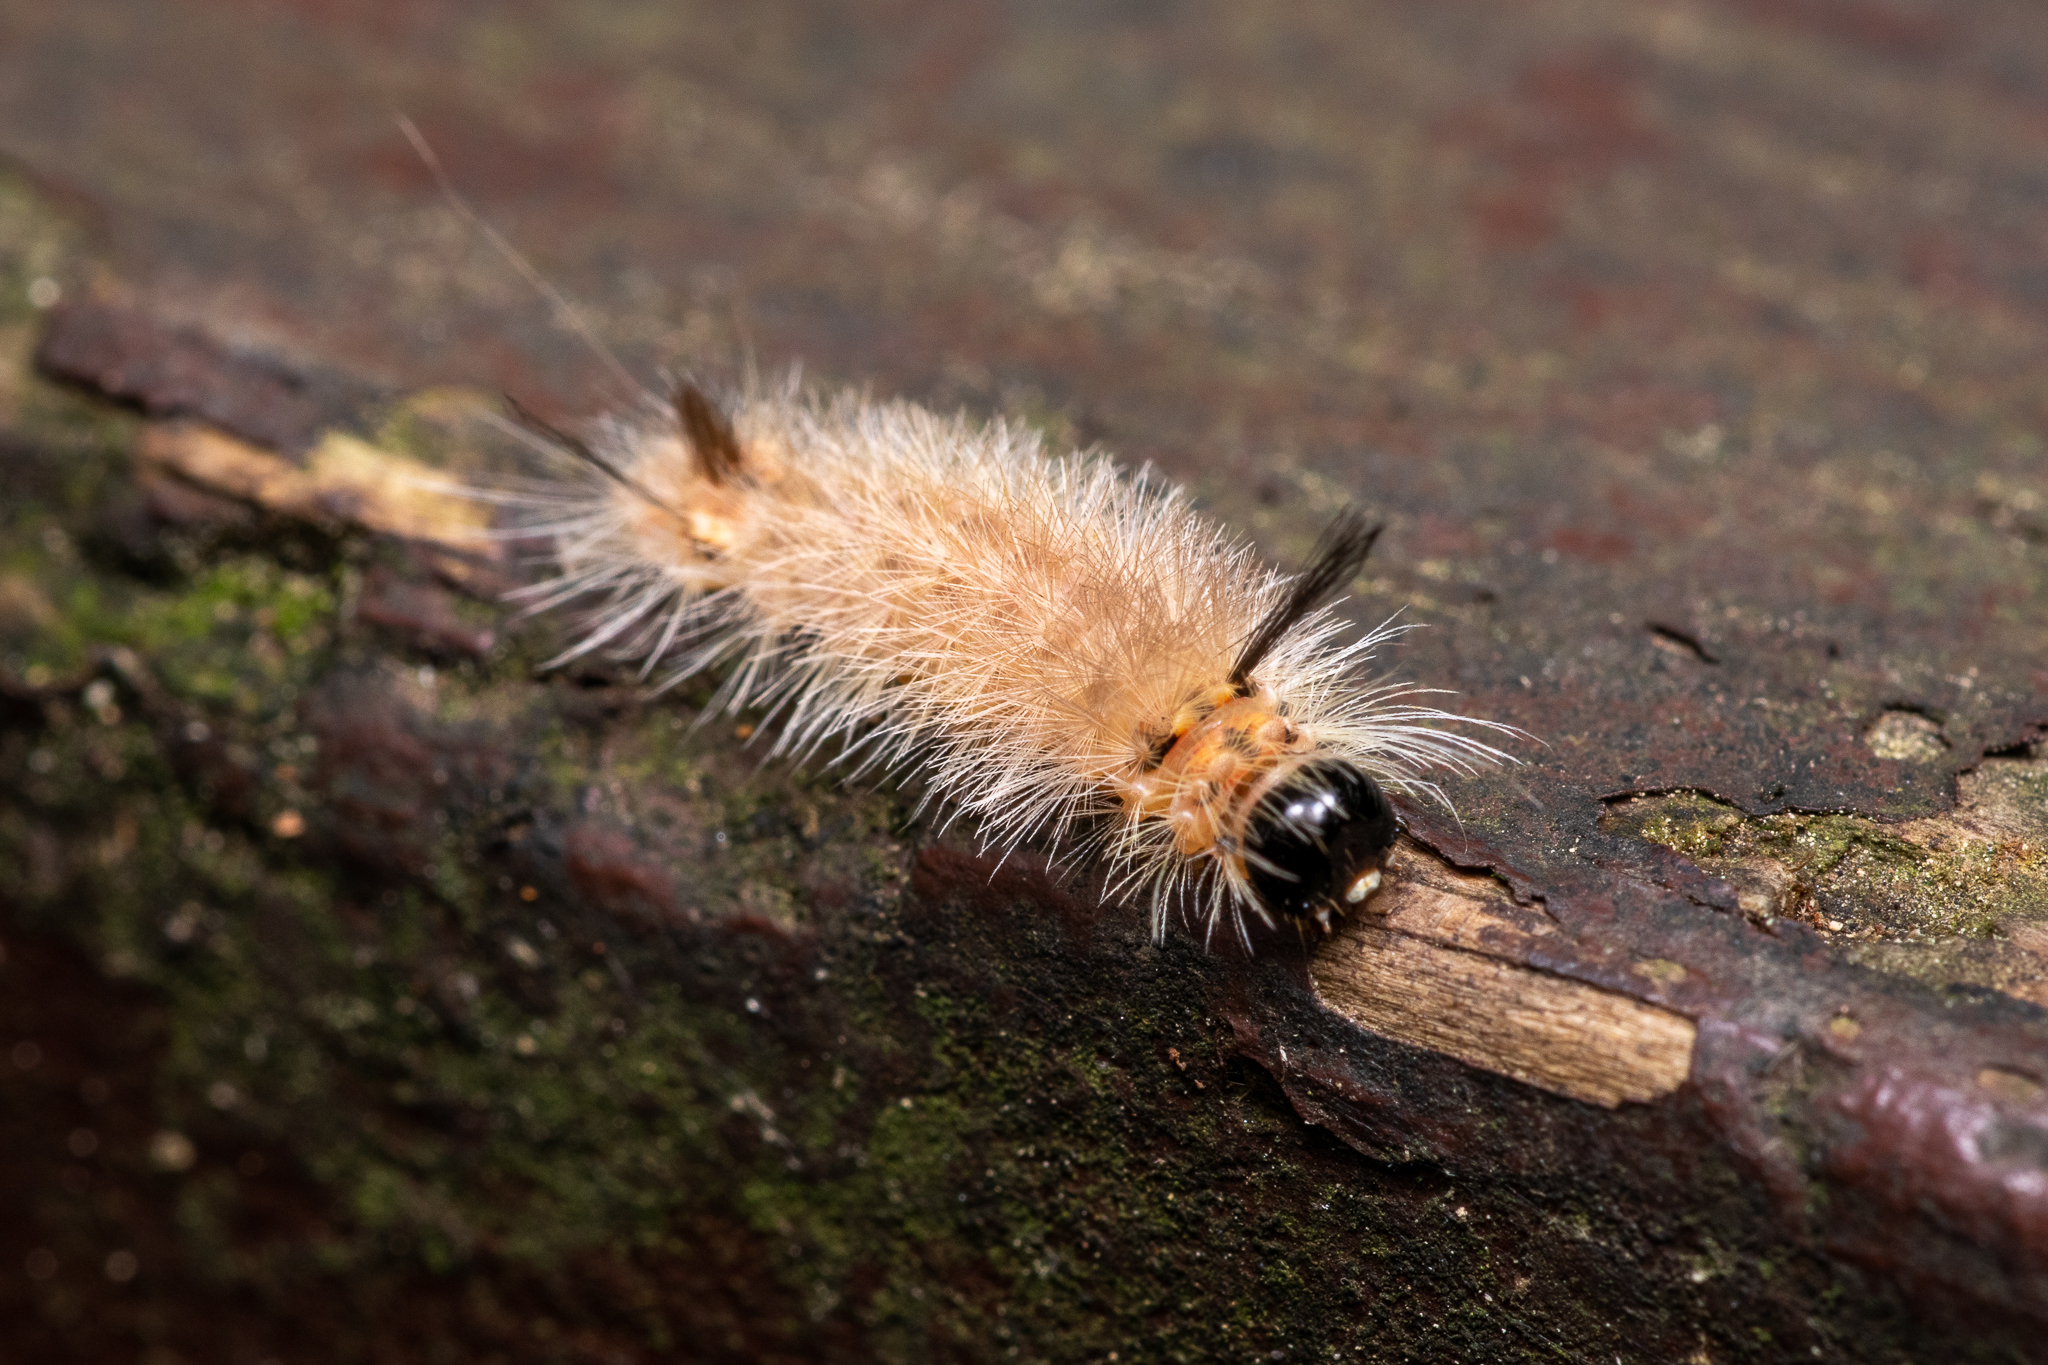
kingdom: Animalia
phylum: Arthropoda
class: Insecta
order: Lepidoptera
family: Erebidae
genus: Halysidota
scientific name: Halysidota tessellaris
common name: Banded tussock moth
